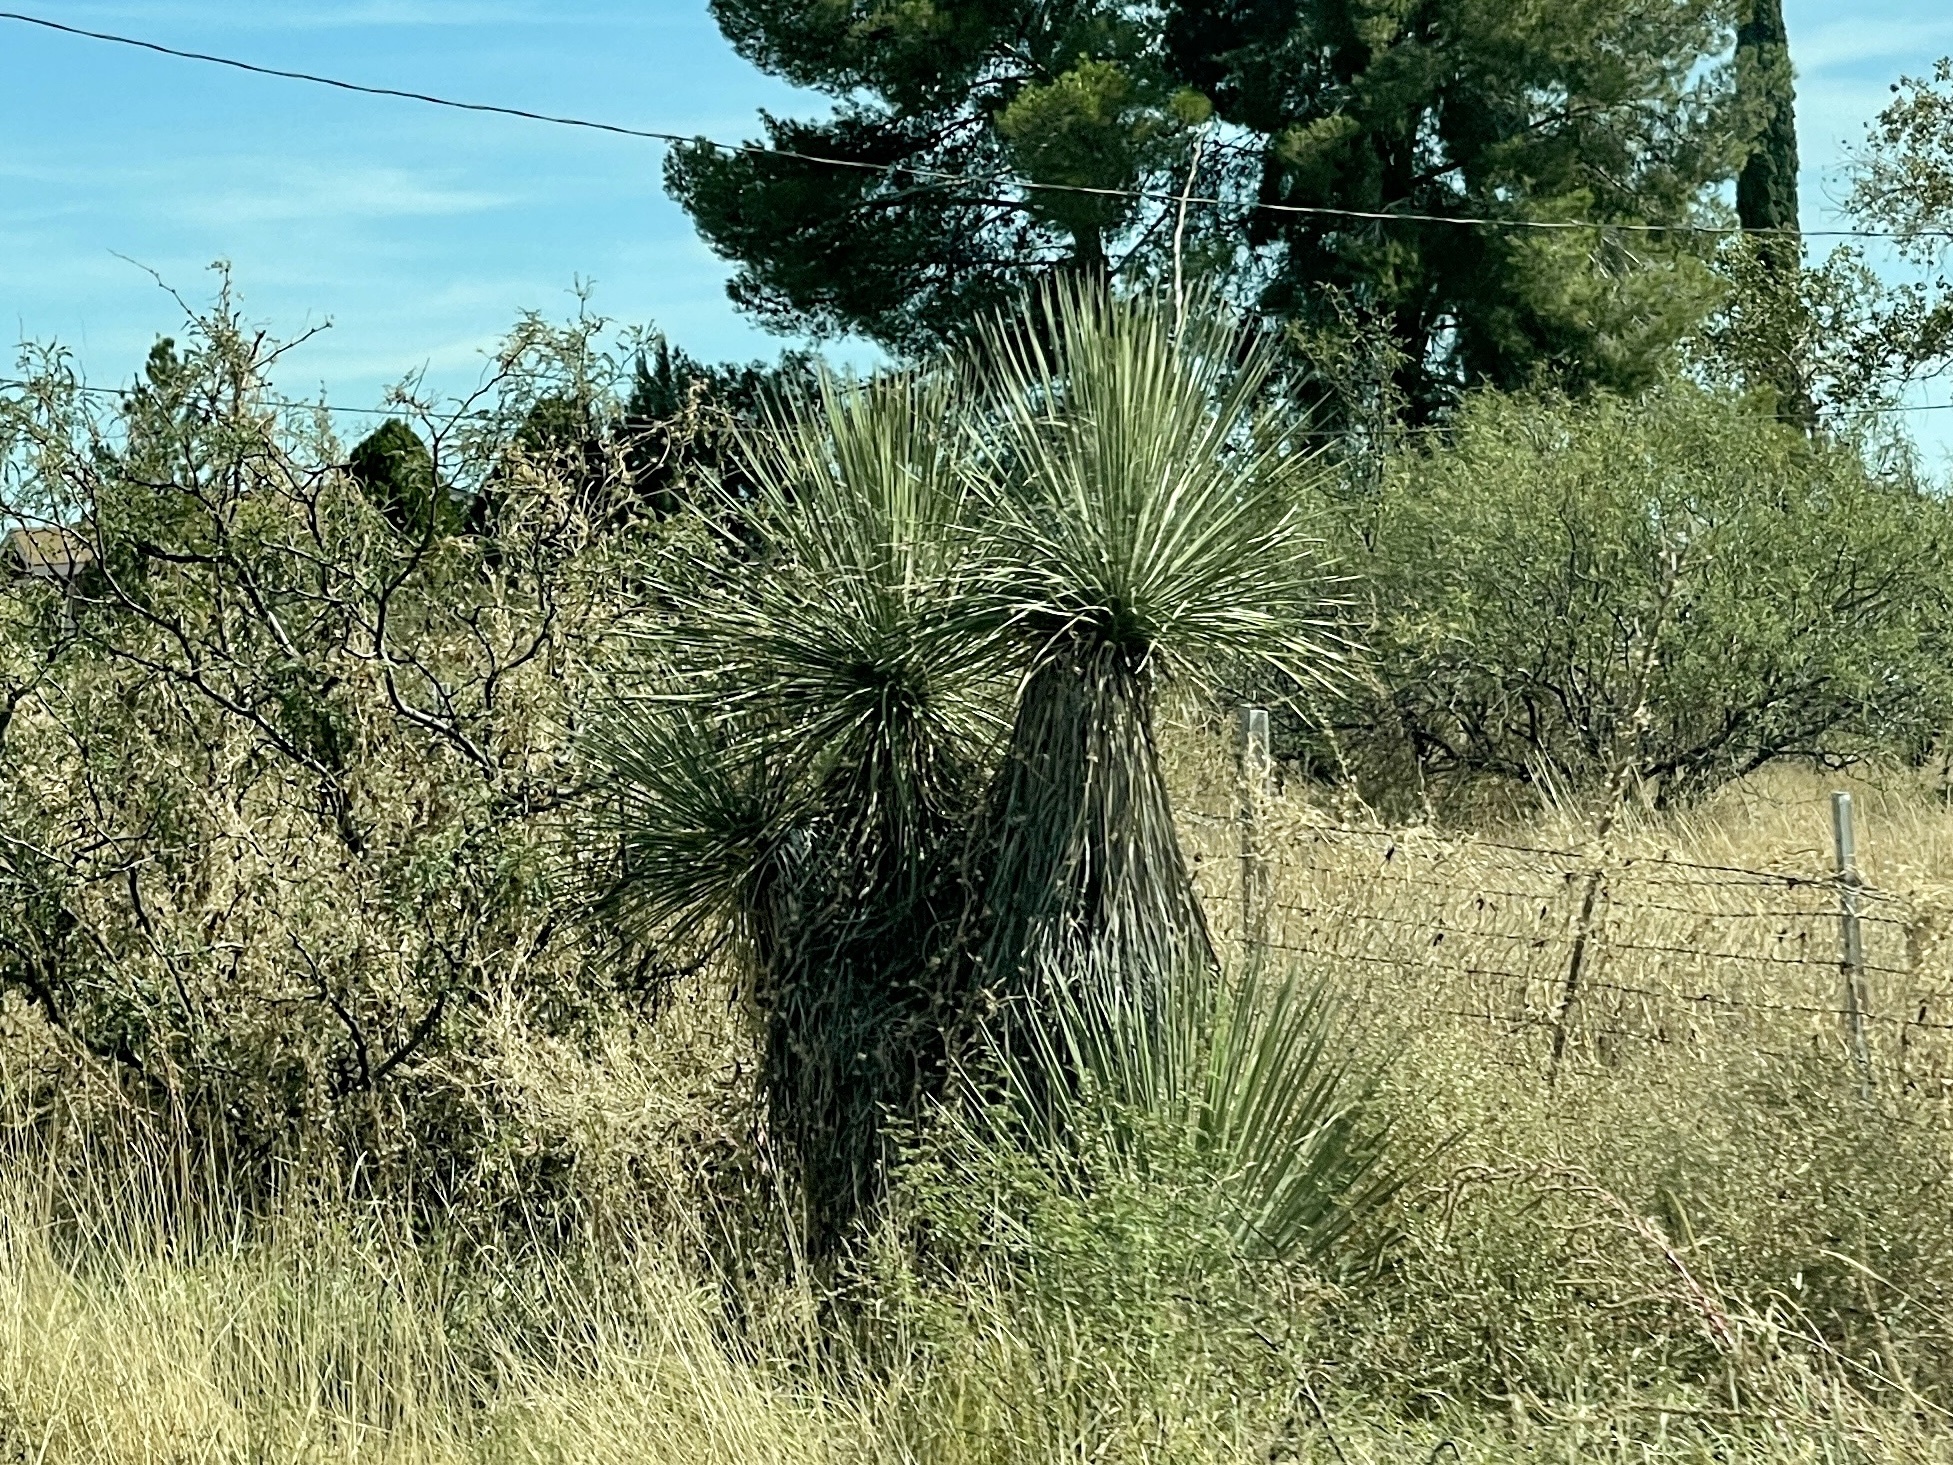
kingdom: Plantae
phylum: Tracheophyta
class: Liliopsida
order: Asparagales
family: Asparagaceae
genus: Yucca
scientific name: Yucca elata
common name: Palmella
